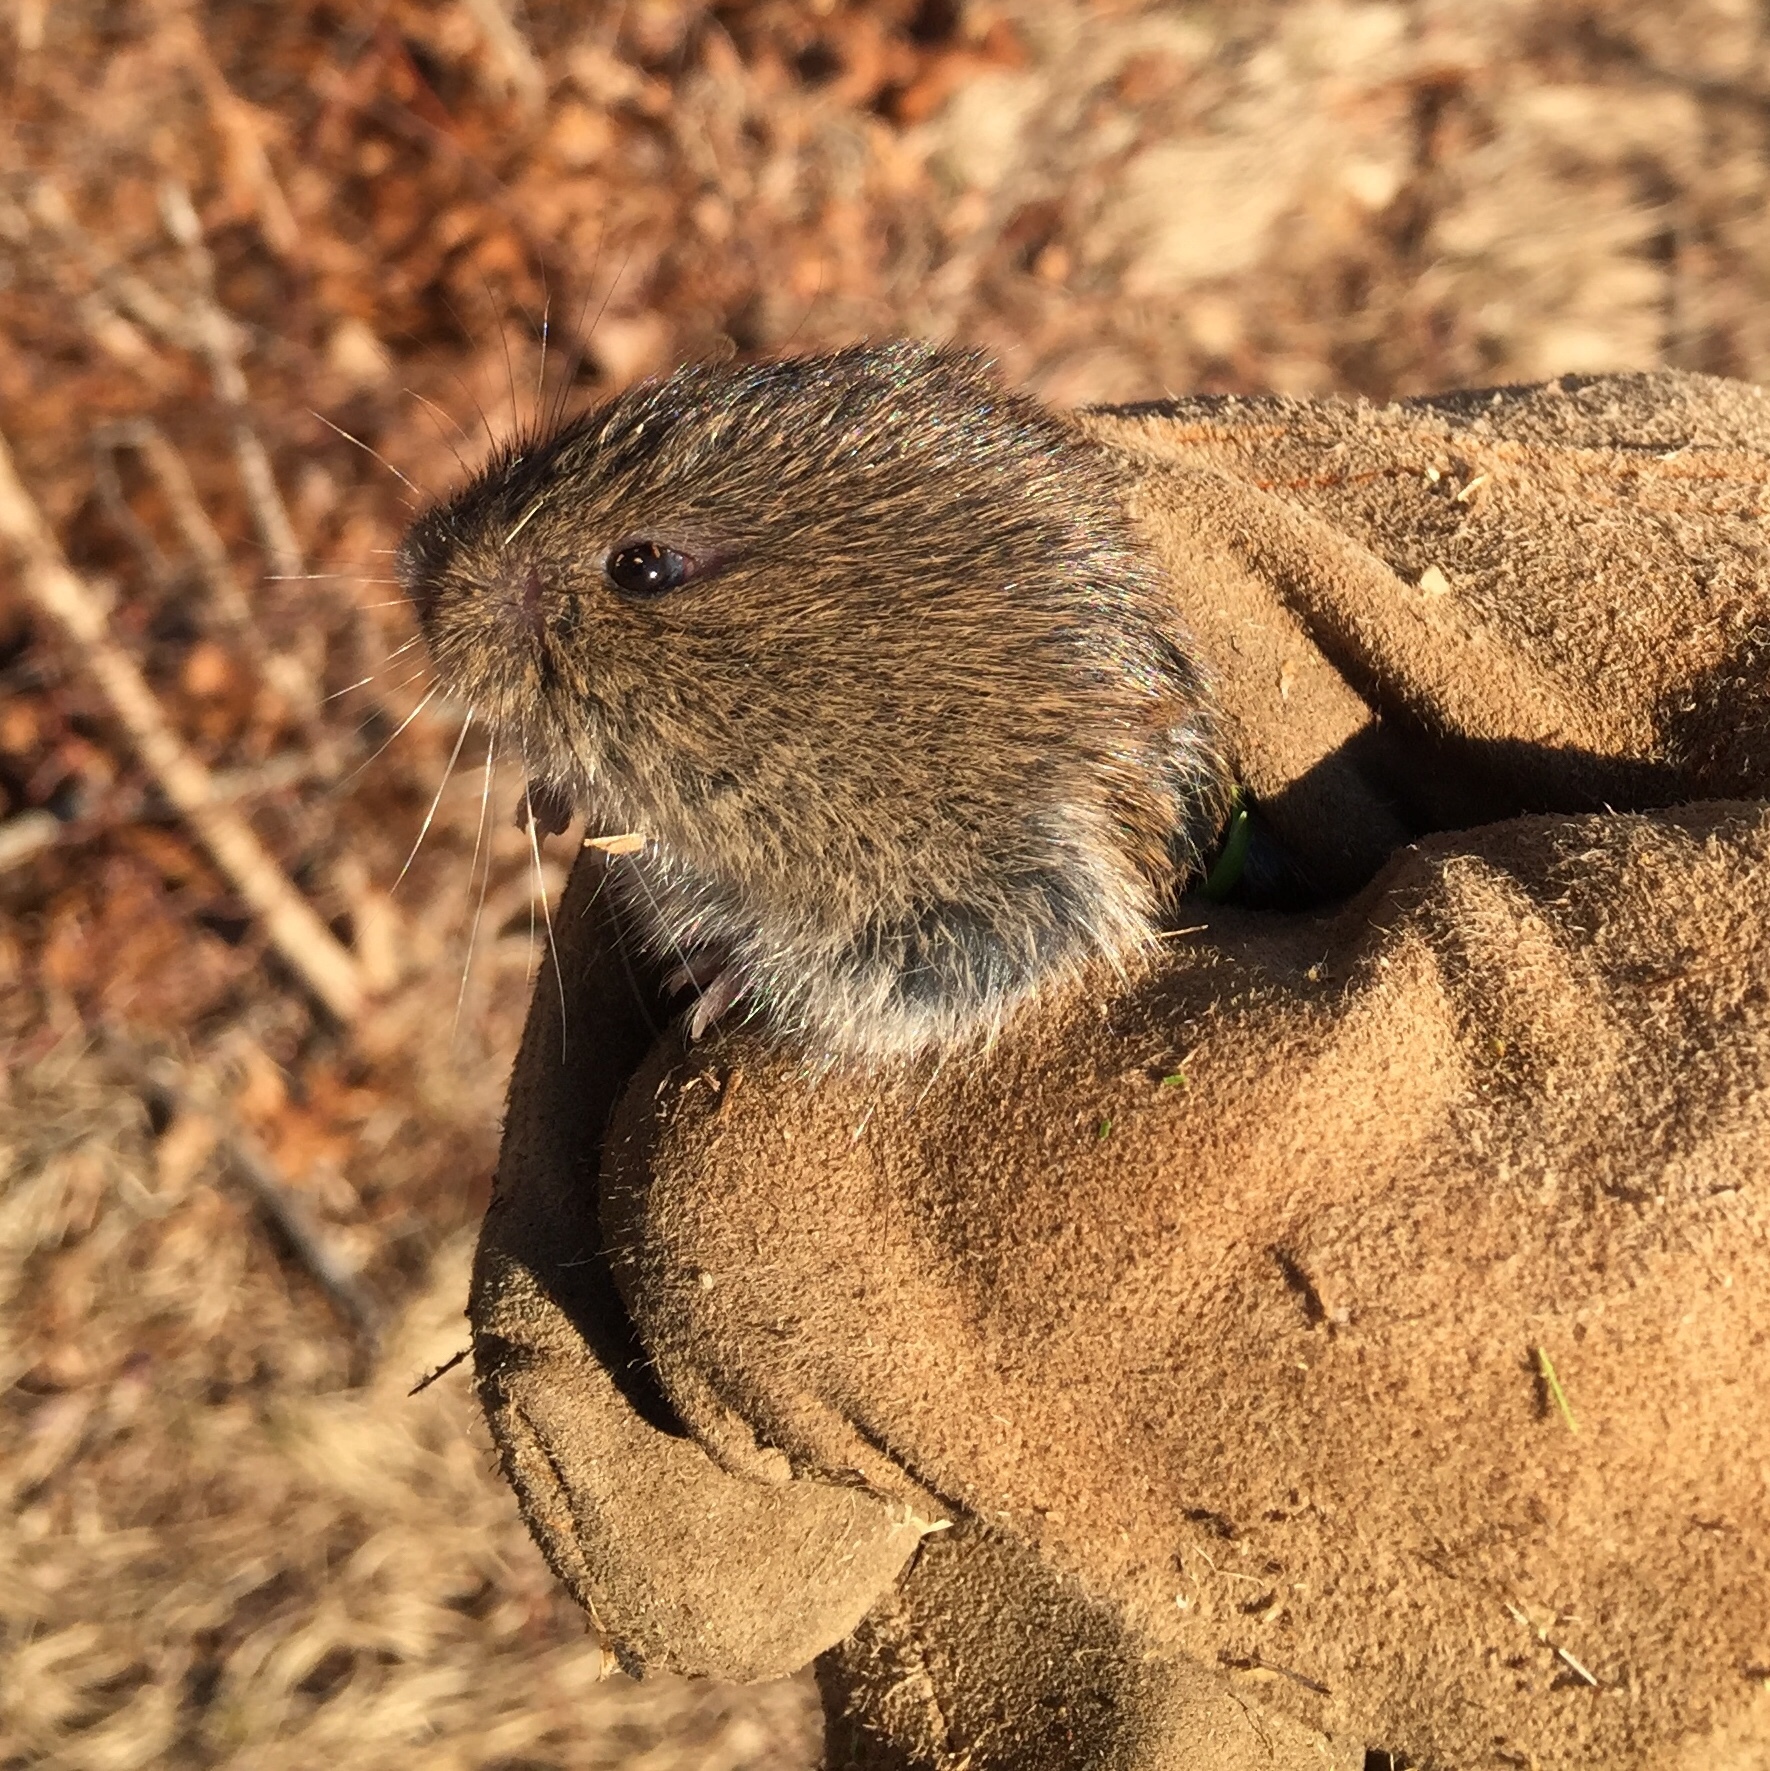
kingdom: Animalia
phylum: Chordata
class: Mammalia
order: Rodentia
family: Cricetidae
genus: Microtus
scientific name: Microtus pennsylvanicus
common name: Meadow vole
